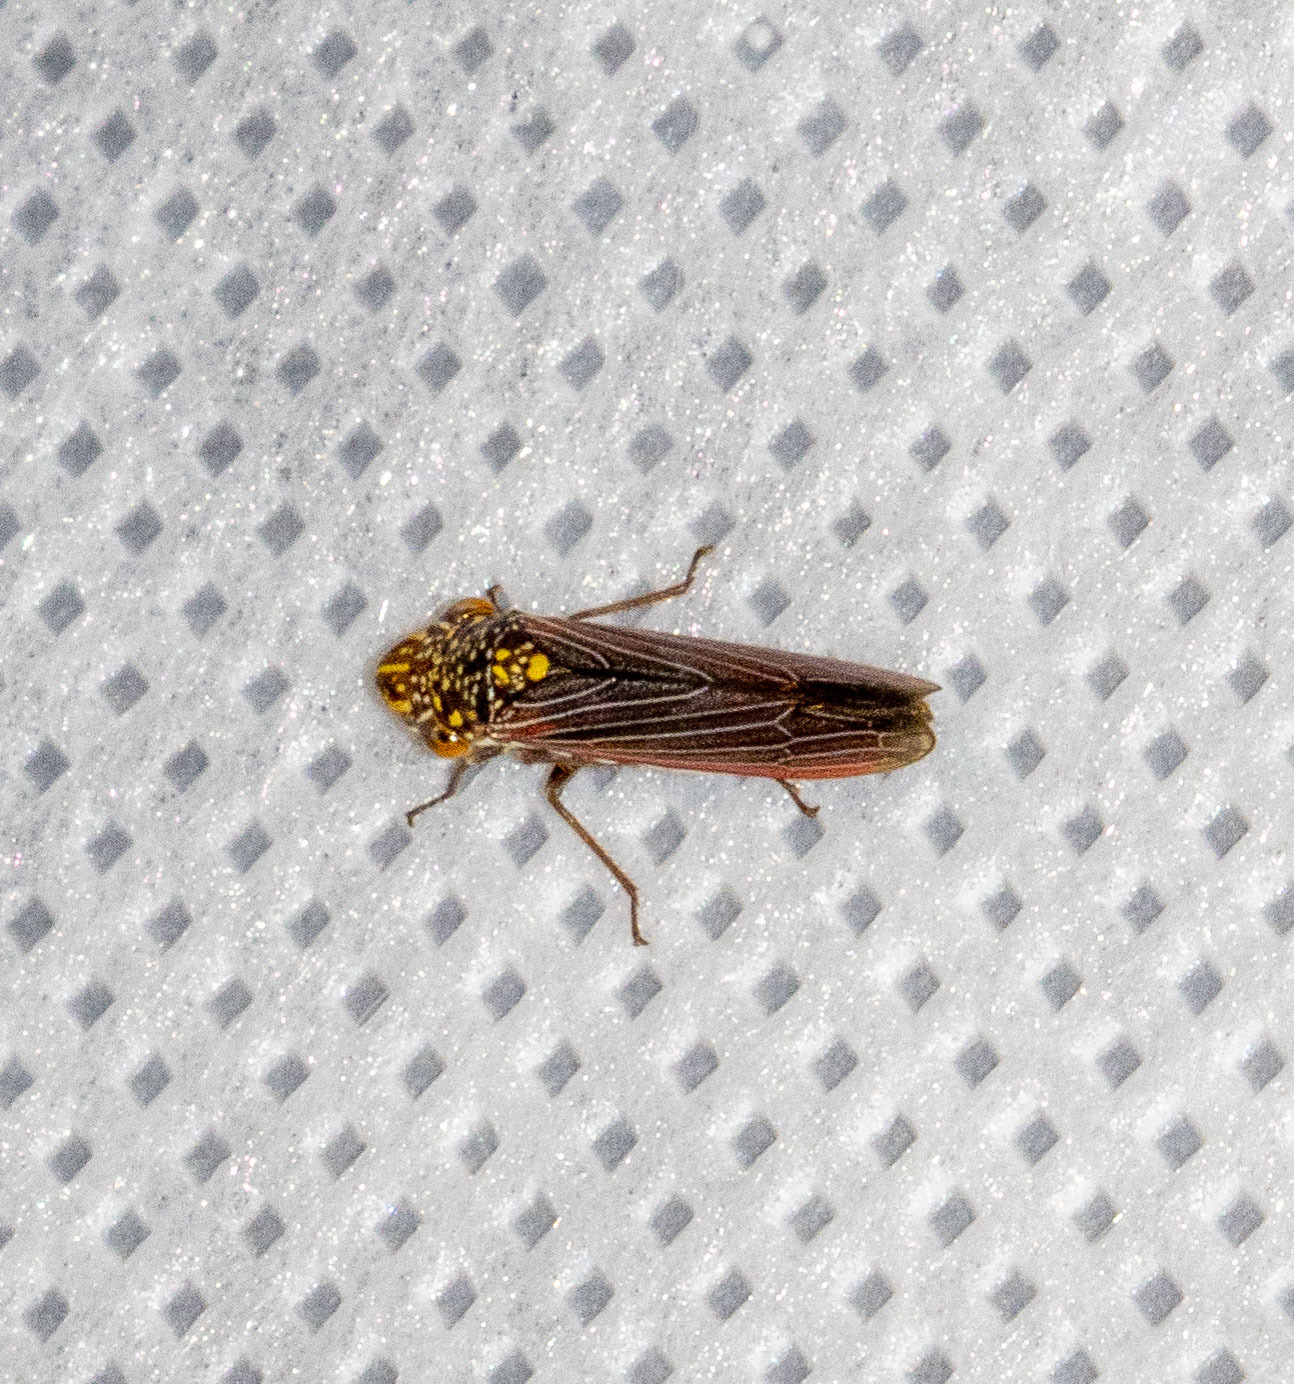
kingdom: Animalia
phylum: Arthropoda
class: Insecta
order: Hemiptera
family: Cicadellidae
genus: Tapajosa
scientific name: Tapajosa spinata
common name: Sharpshooter leafhopper
